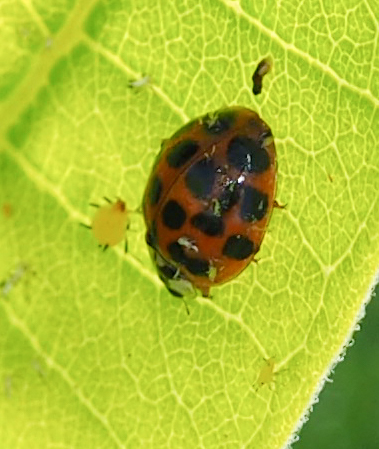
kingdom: Animalia
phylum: Arthropoda
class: Insecta
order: Coleoptera
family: Coccinellidae
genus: Harmonia
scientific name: Harmonia axyridis
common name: Harlequin ladybird
